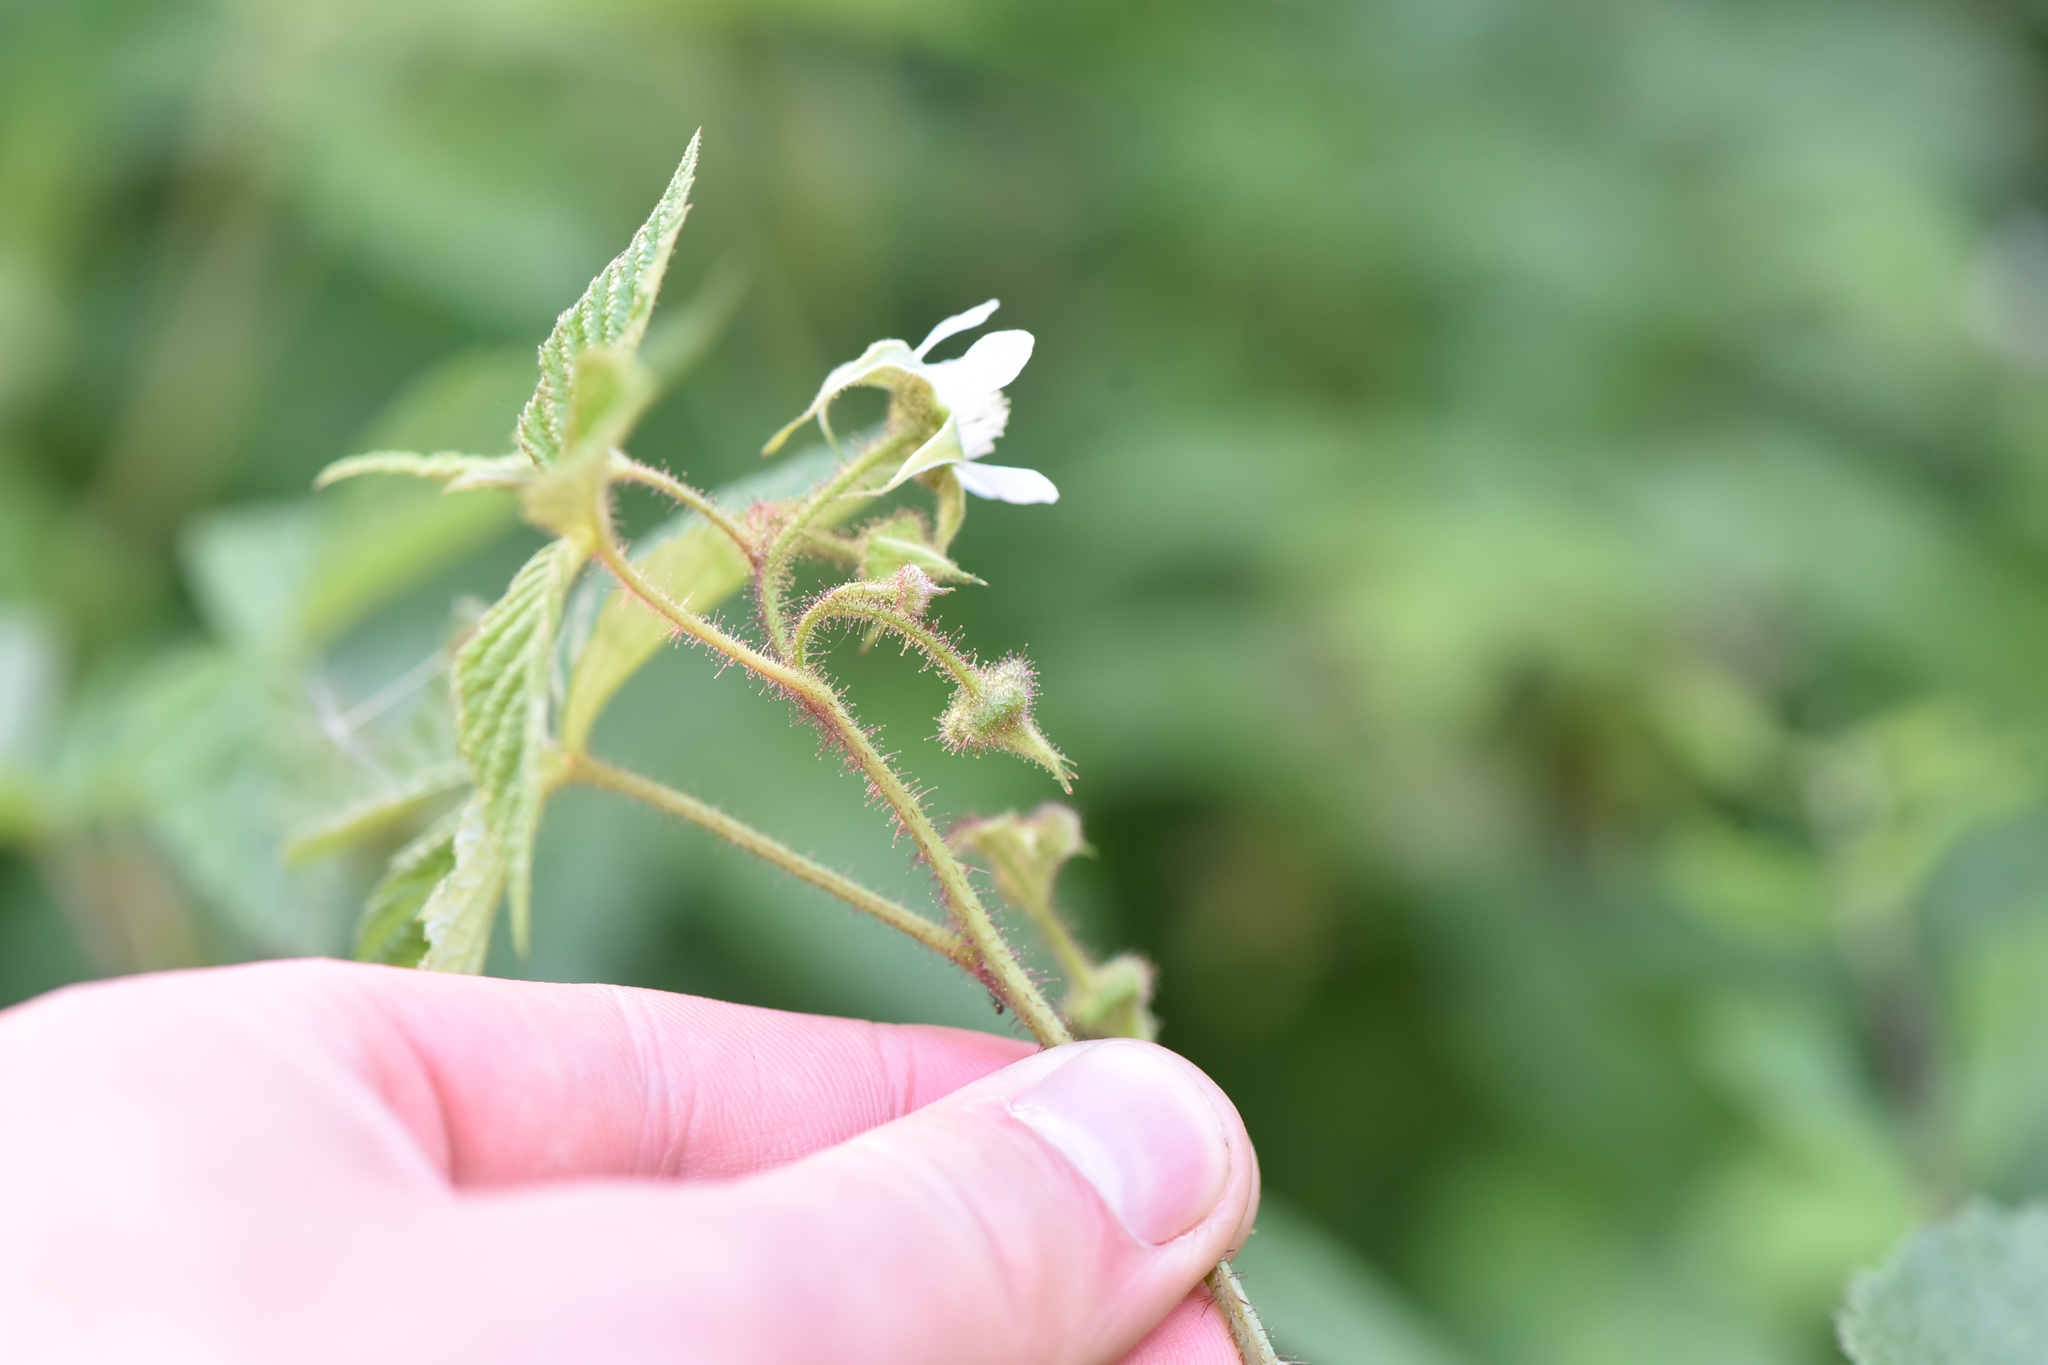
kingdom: Plantae
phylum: Tracheophyta
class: Magnoliopsida
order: Rosales
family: Rosaceae
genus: Rubus
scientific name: Rubus idaeus
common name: Raspberry
